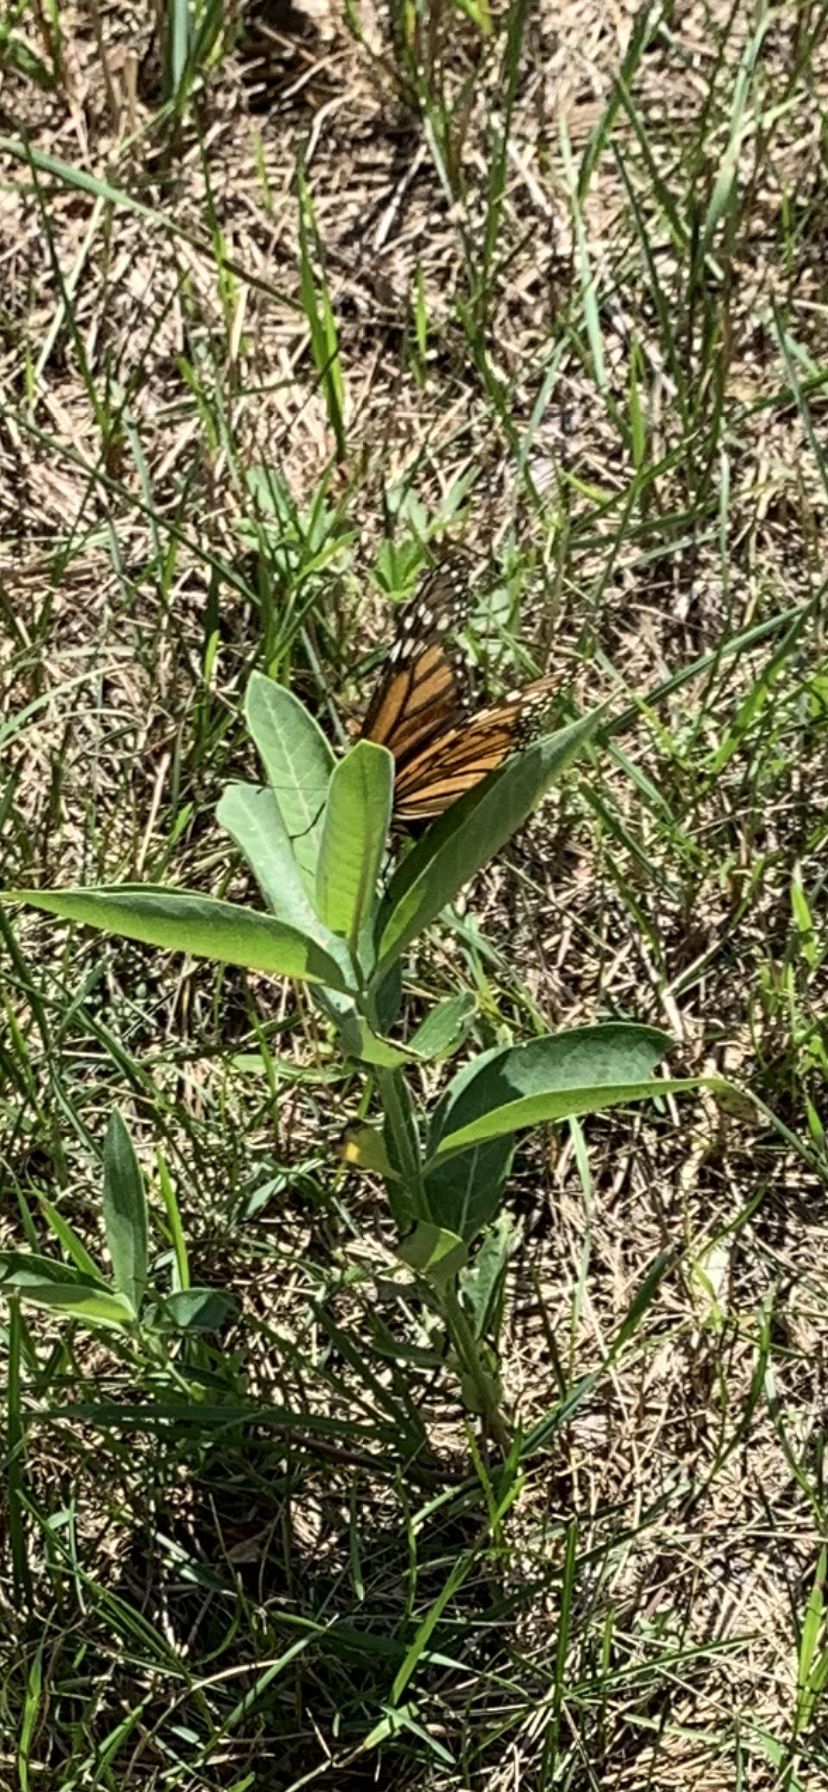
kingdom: Animalia
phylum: Arthropoda
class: Insecta
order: Lepidoptera
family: Nymphalidae
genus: Danaus
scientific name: Danaus plexippus
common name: Monarch
